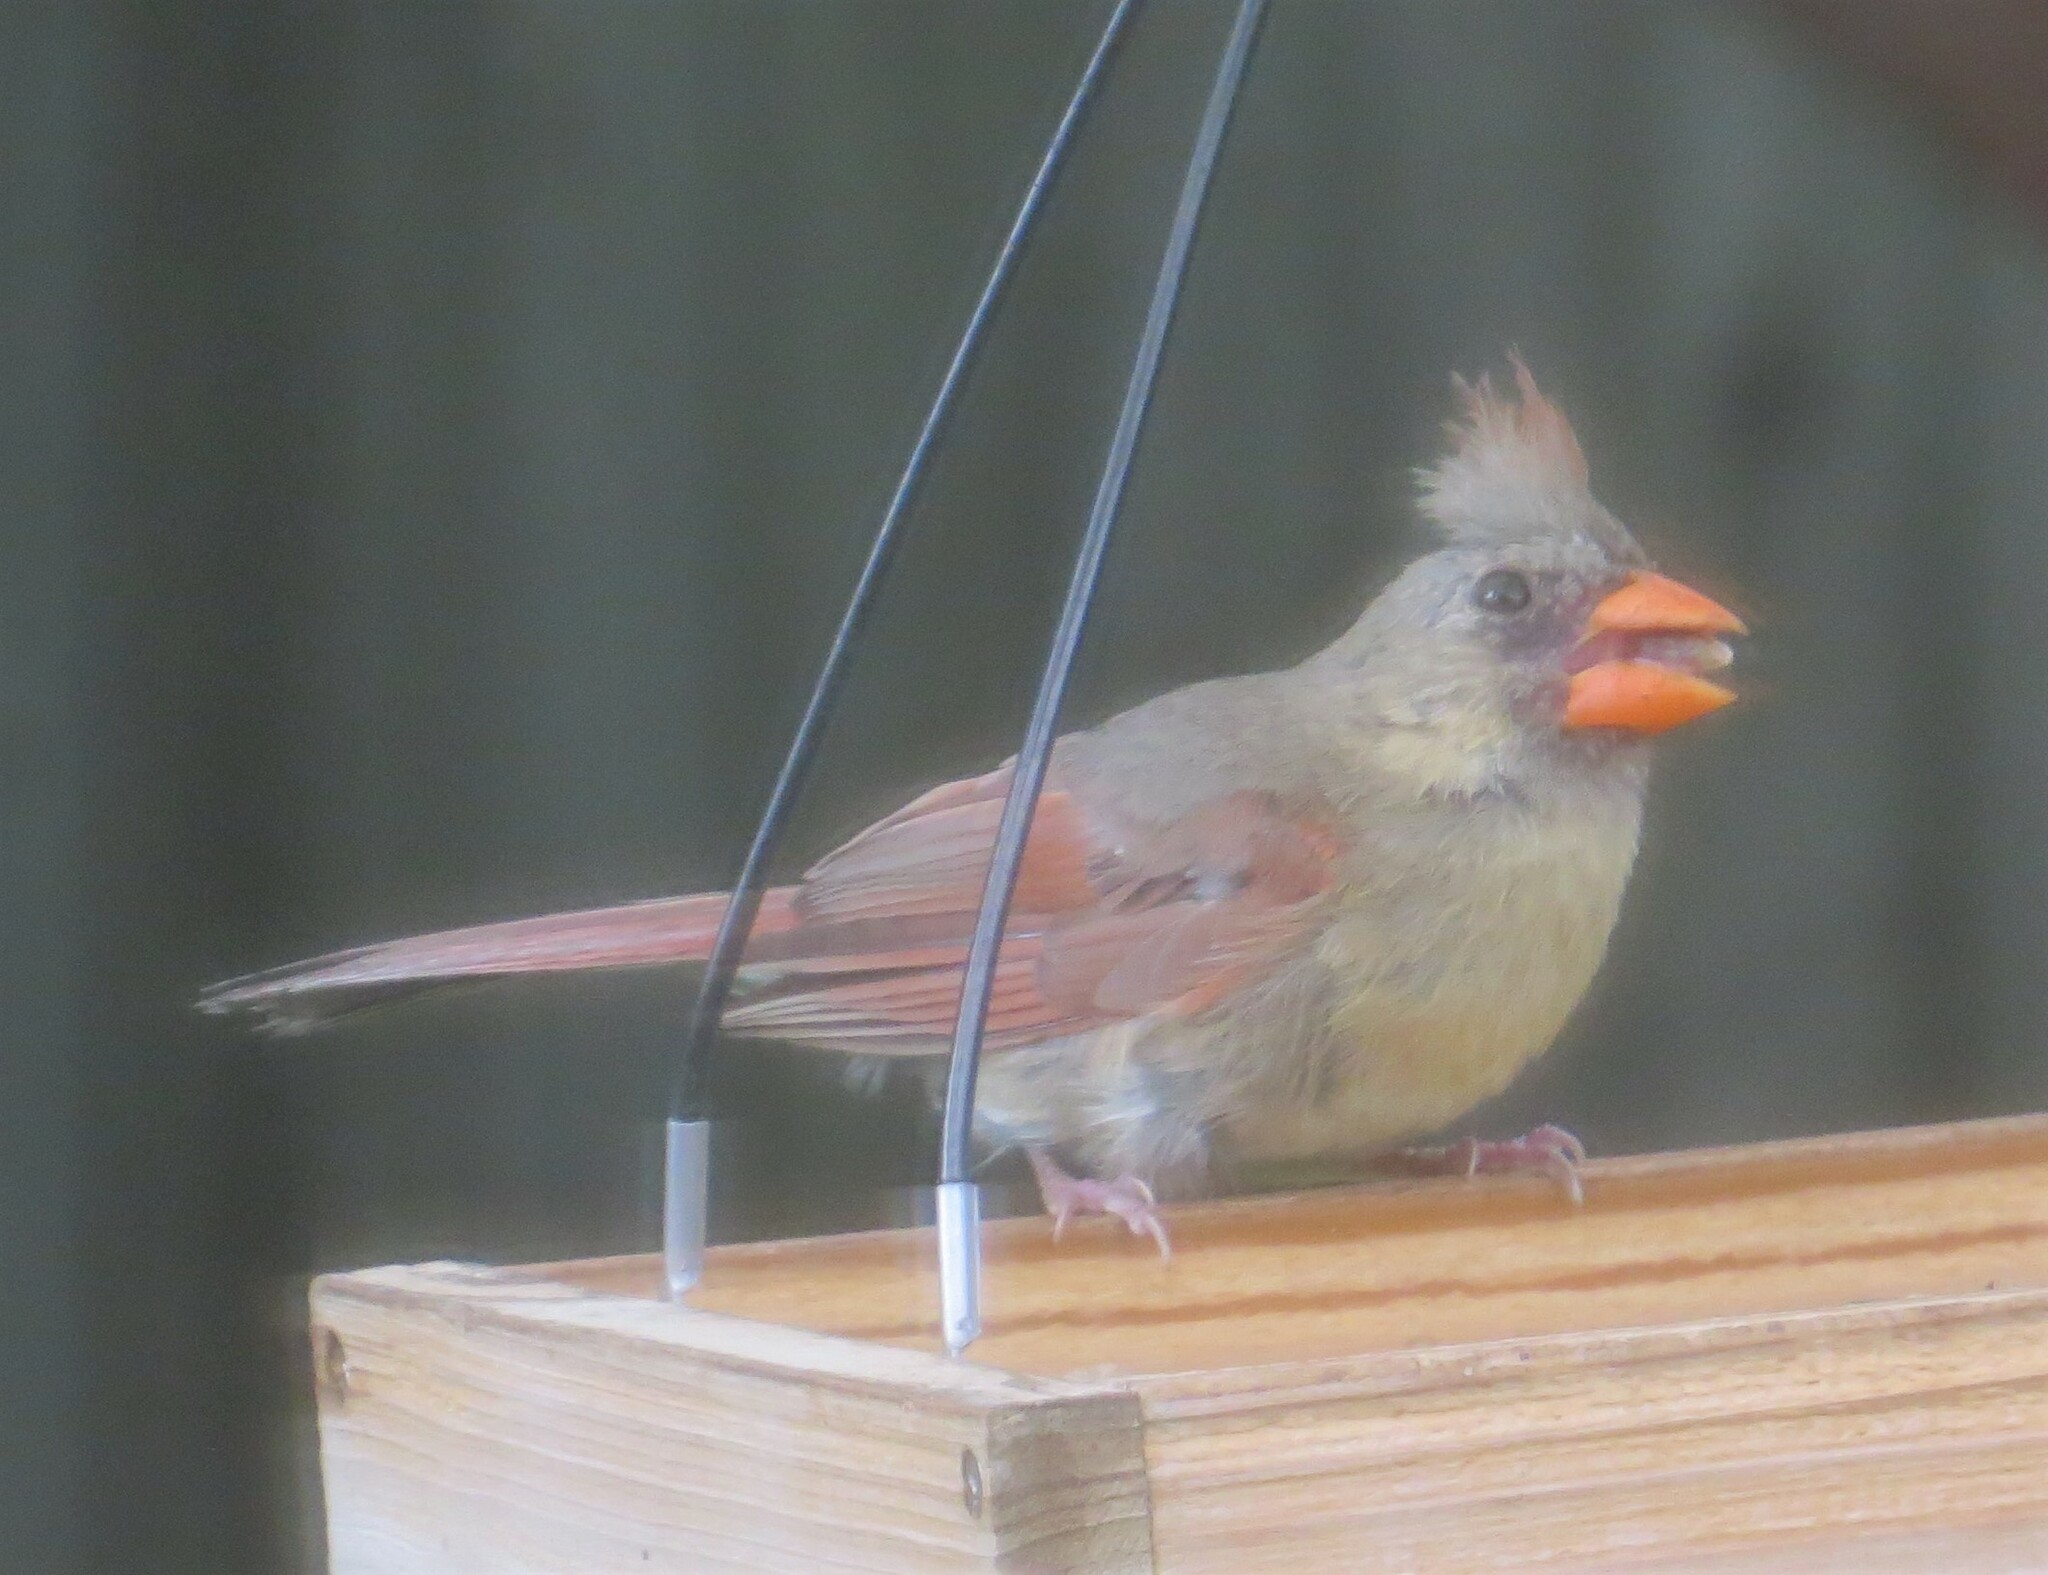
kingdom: Animalia
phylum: Chordata
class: Aves
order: Passeriformes
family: Cardinalidae
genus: Cardinalis
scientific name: Cardinalis cardinalis
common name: Northern cardinal
